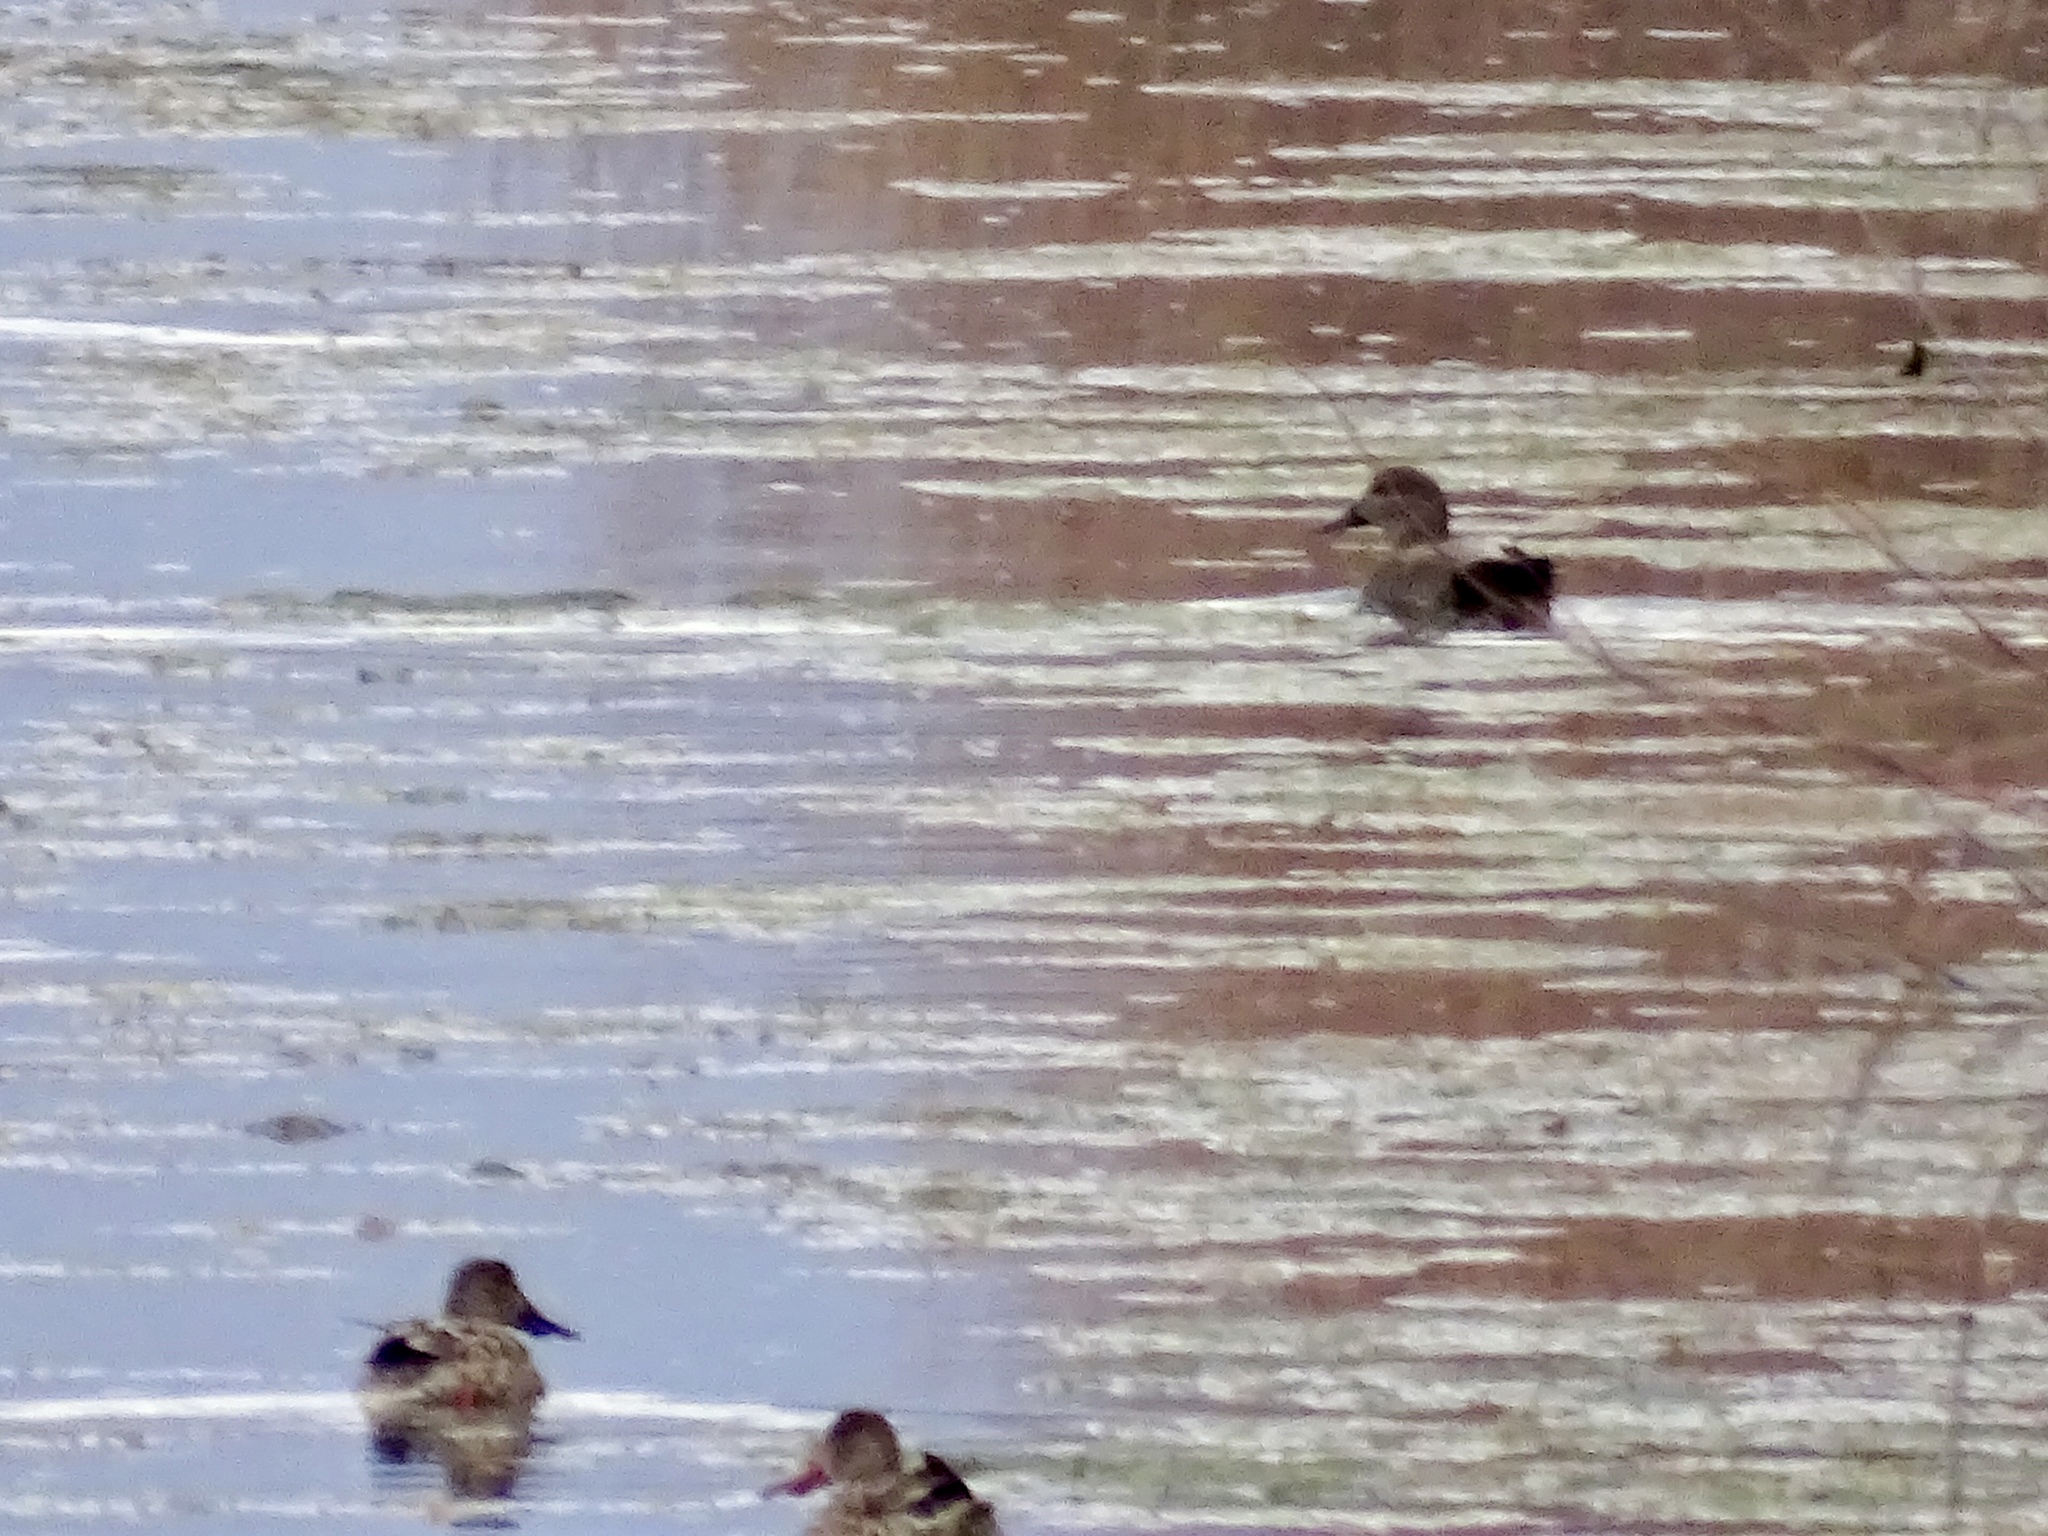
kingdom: Animalia
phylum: Chordata
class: Aves
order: Anseriformes
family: Anatidae
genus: Mareca
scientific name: Mareca strepera
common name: Gadwall
